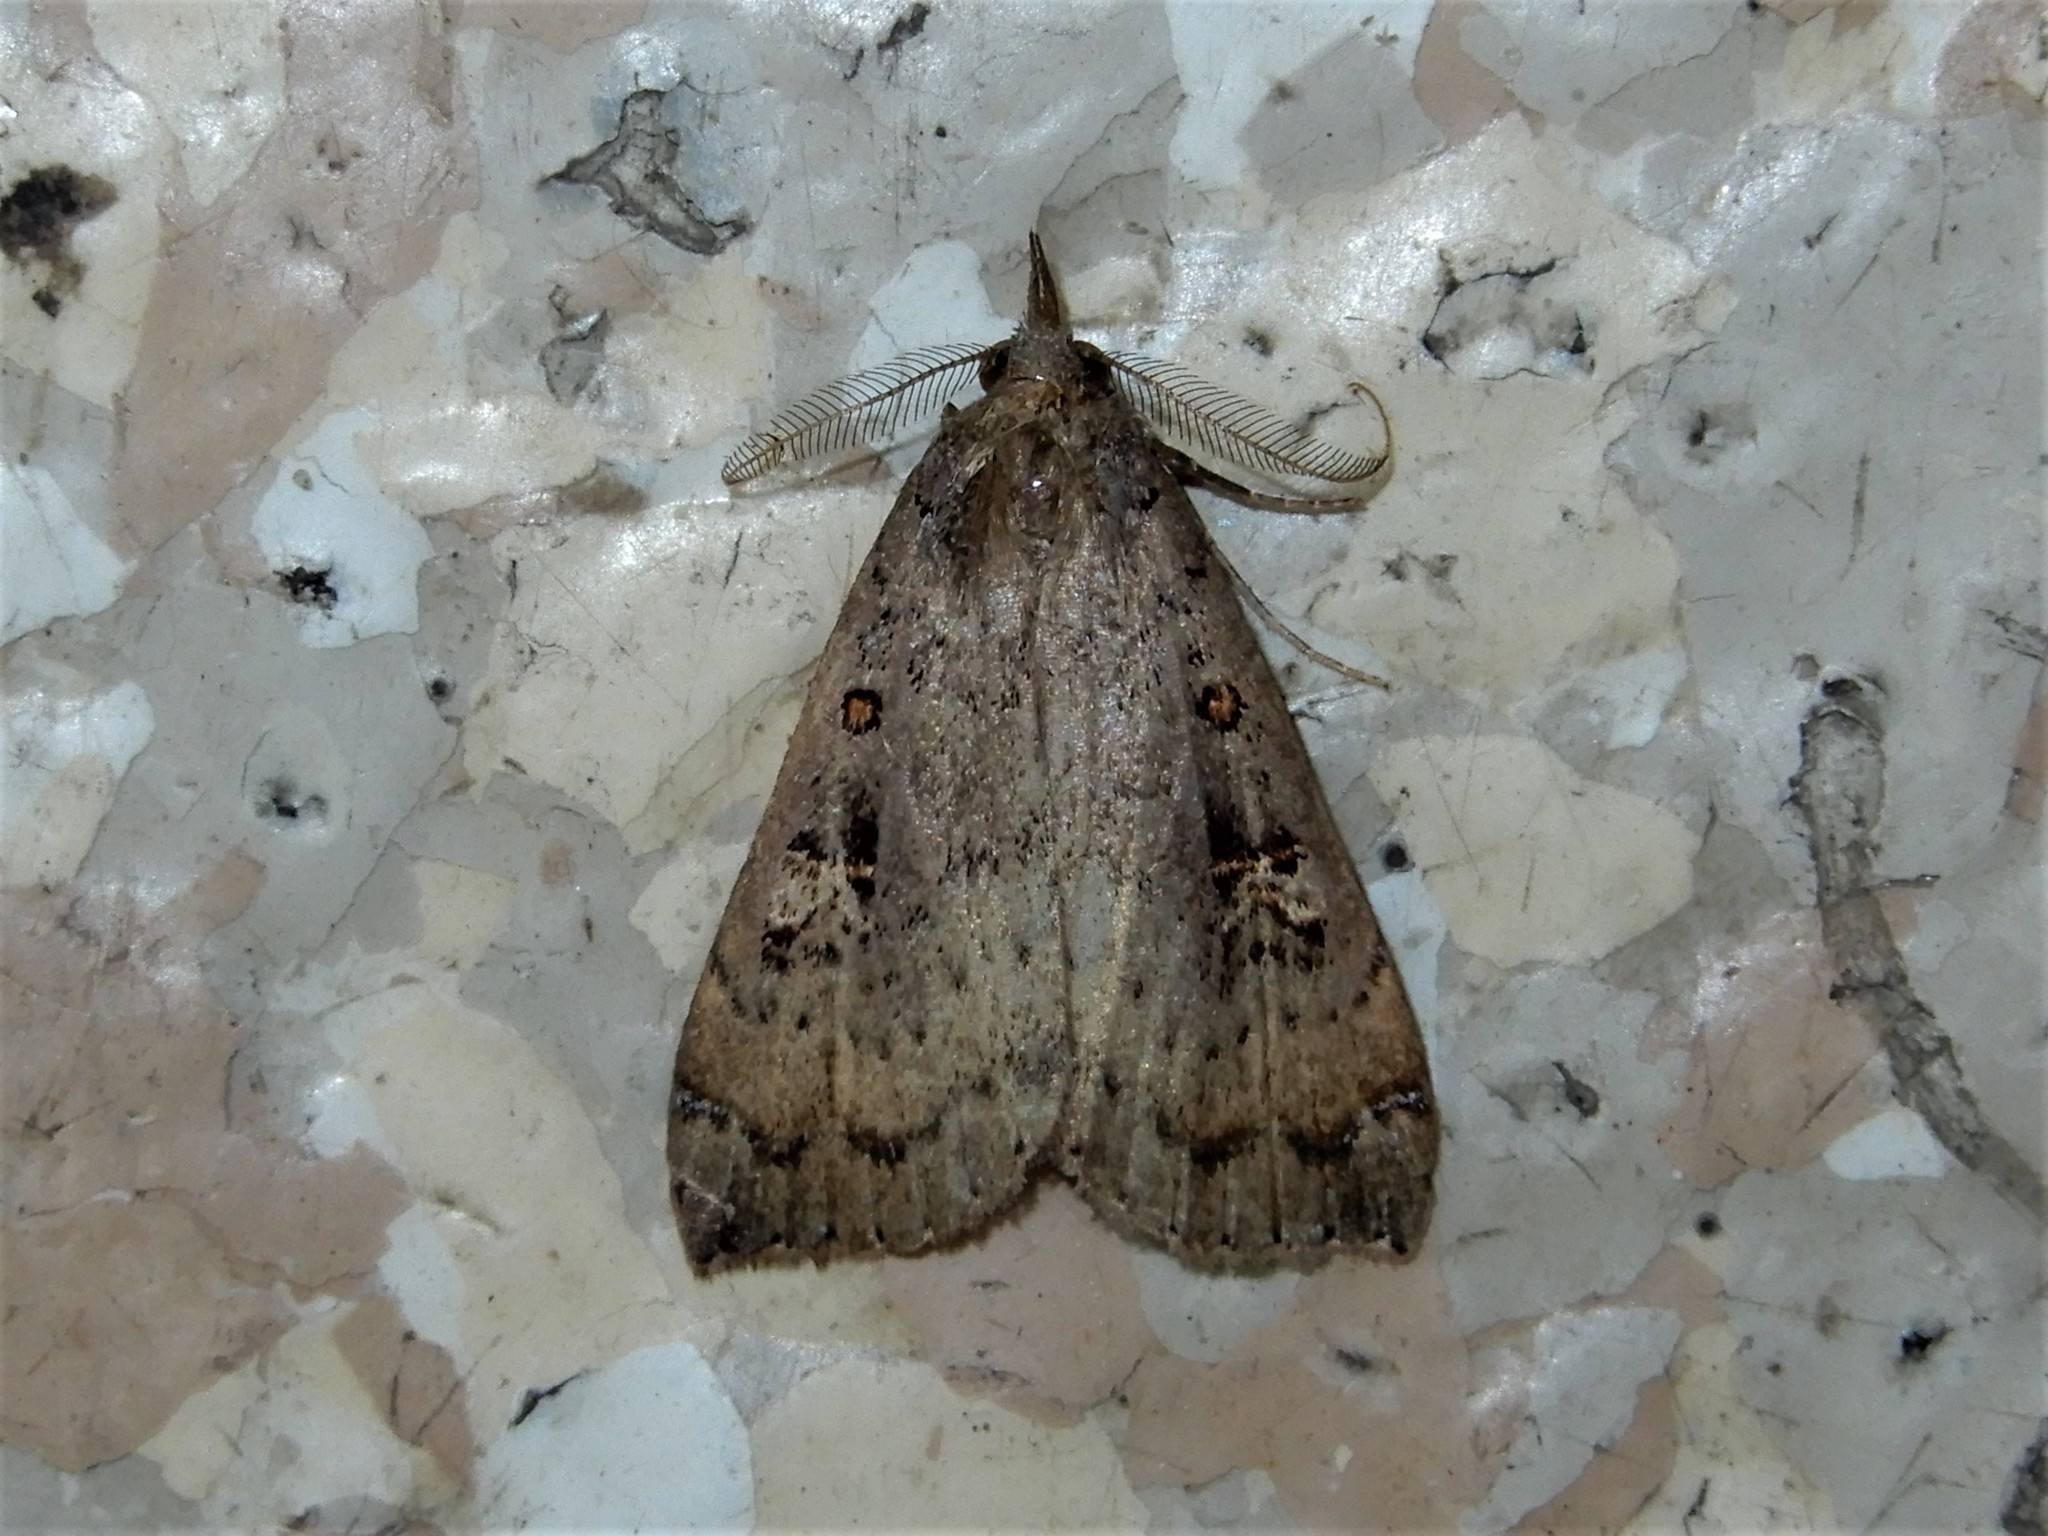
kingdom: Animalia
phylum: Arthropoda
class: Insecta
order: Lepidoptera
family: Erebidae
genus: Rhapsa
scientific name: Rhapsa scotosialis
